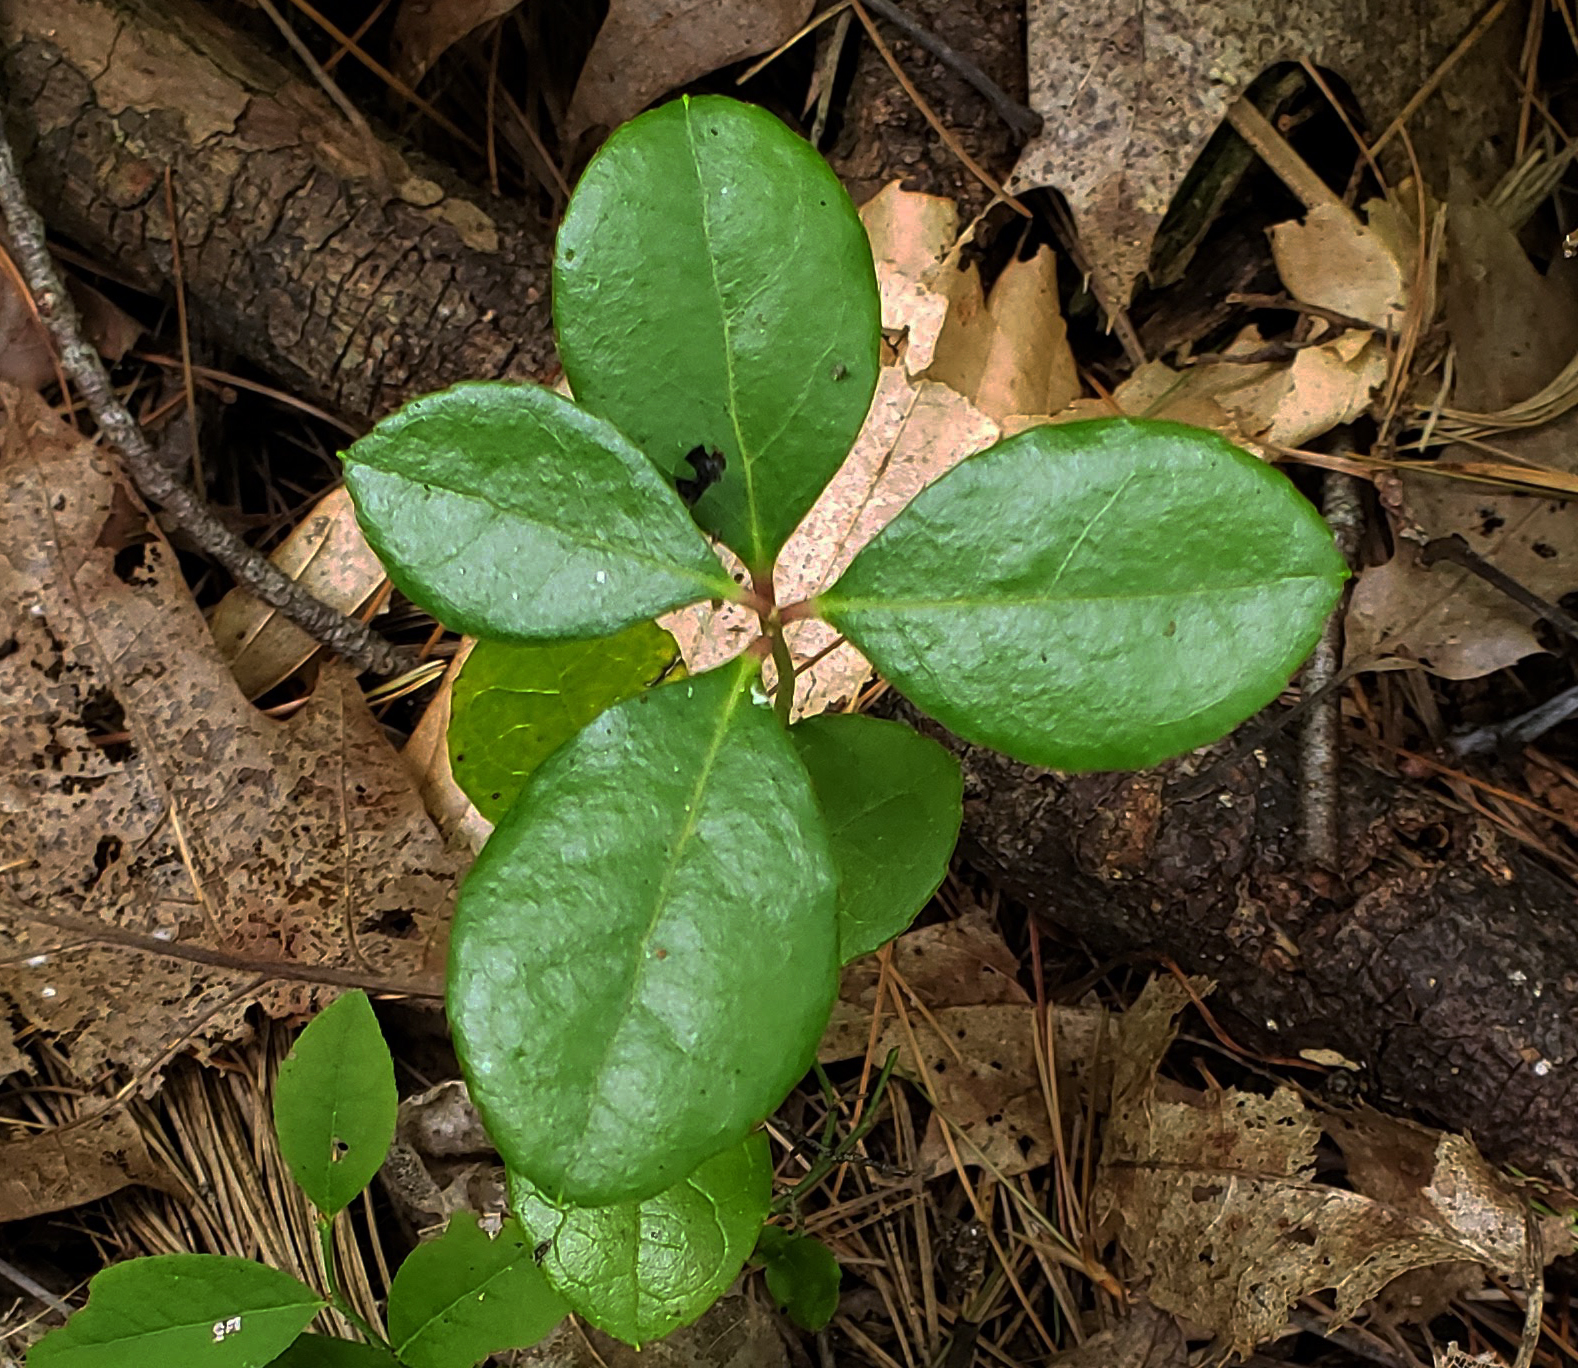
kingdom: Plantae
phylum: Tracheophyta
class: Magnoliopsida
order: Ericales
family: Ericaceae
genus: Gaultheria
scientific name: Gaultheria procumbens
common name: Checkerberry
